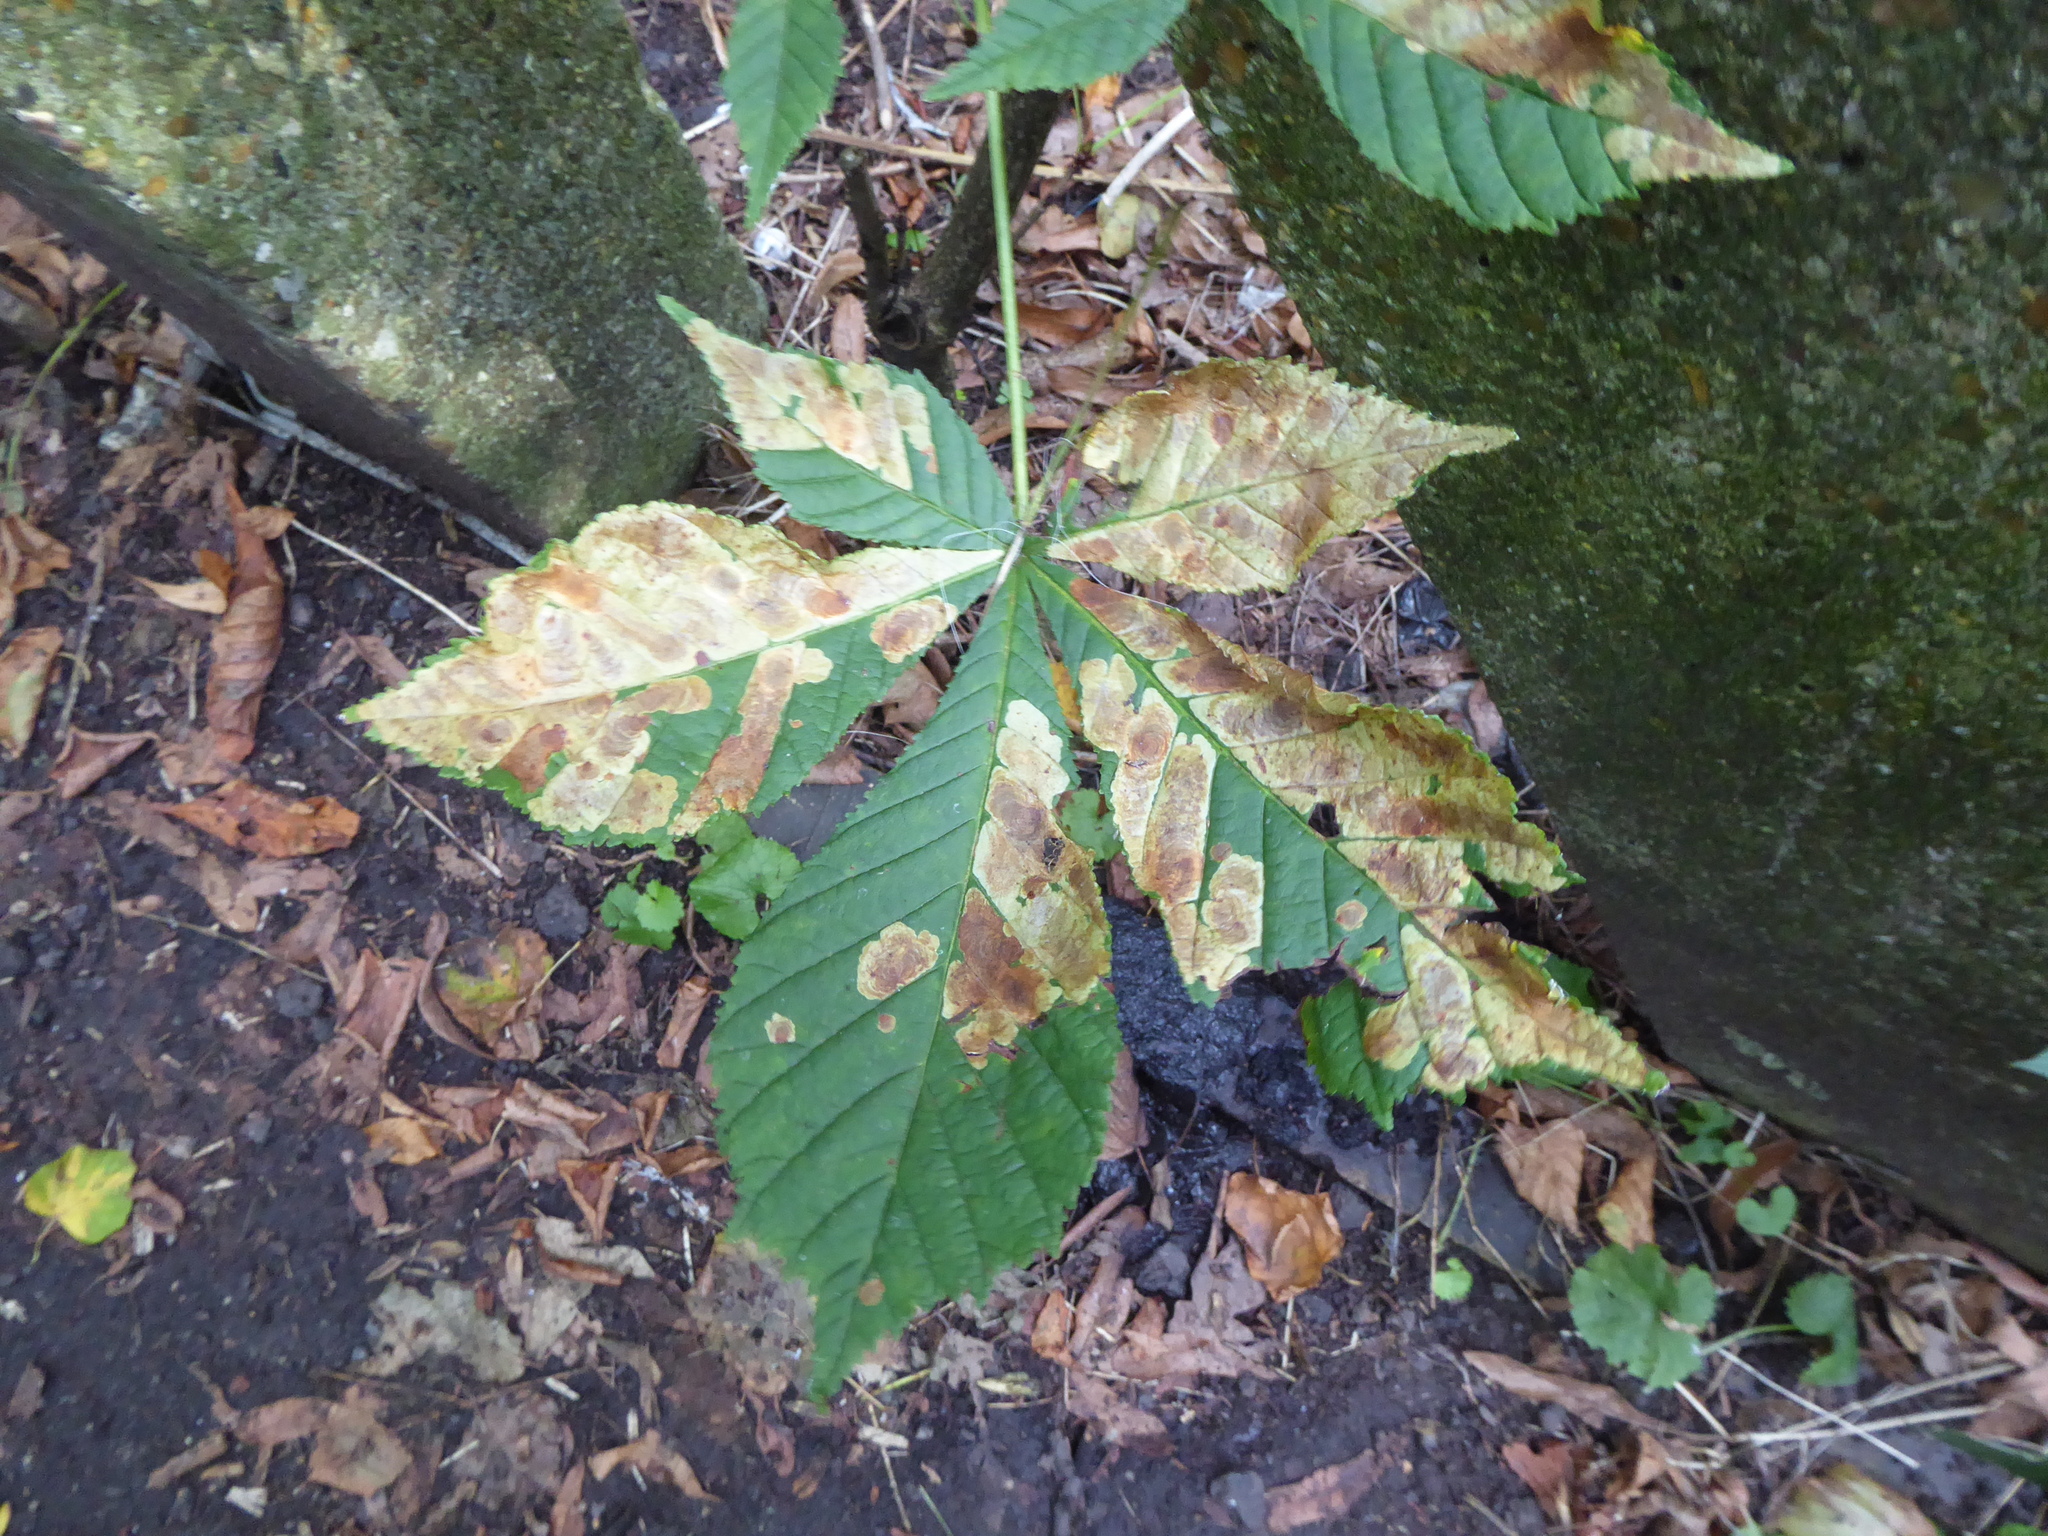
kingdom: Plantae
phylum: Tracheophyta
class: Magnoliopsida
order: Sapindales
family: Sapindaceae
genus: Aesculus
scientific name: Aesculus hippocastanum
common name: Horse-chestnut
